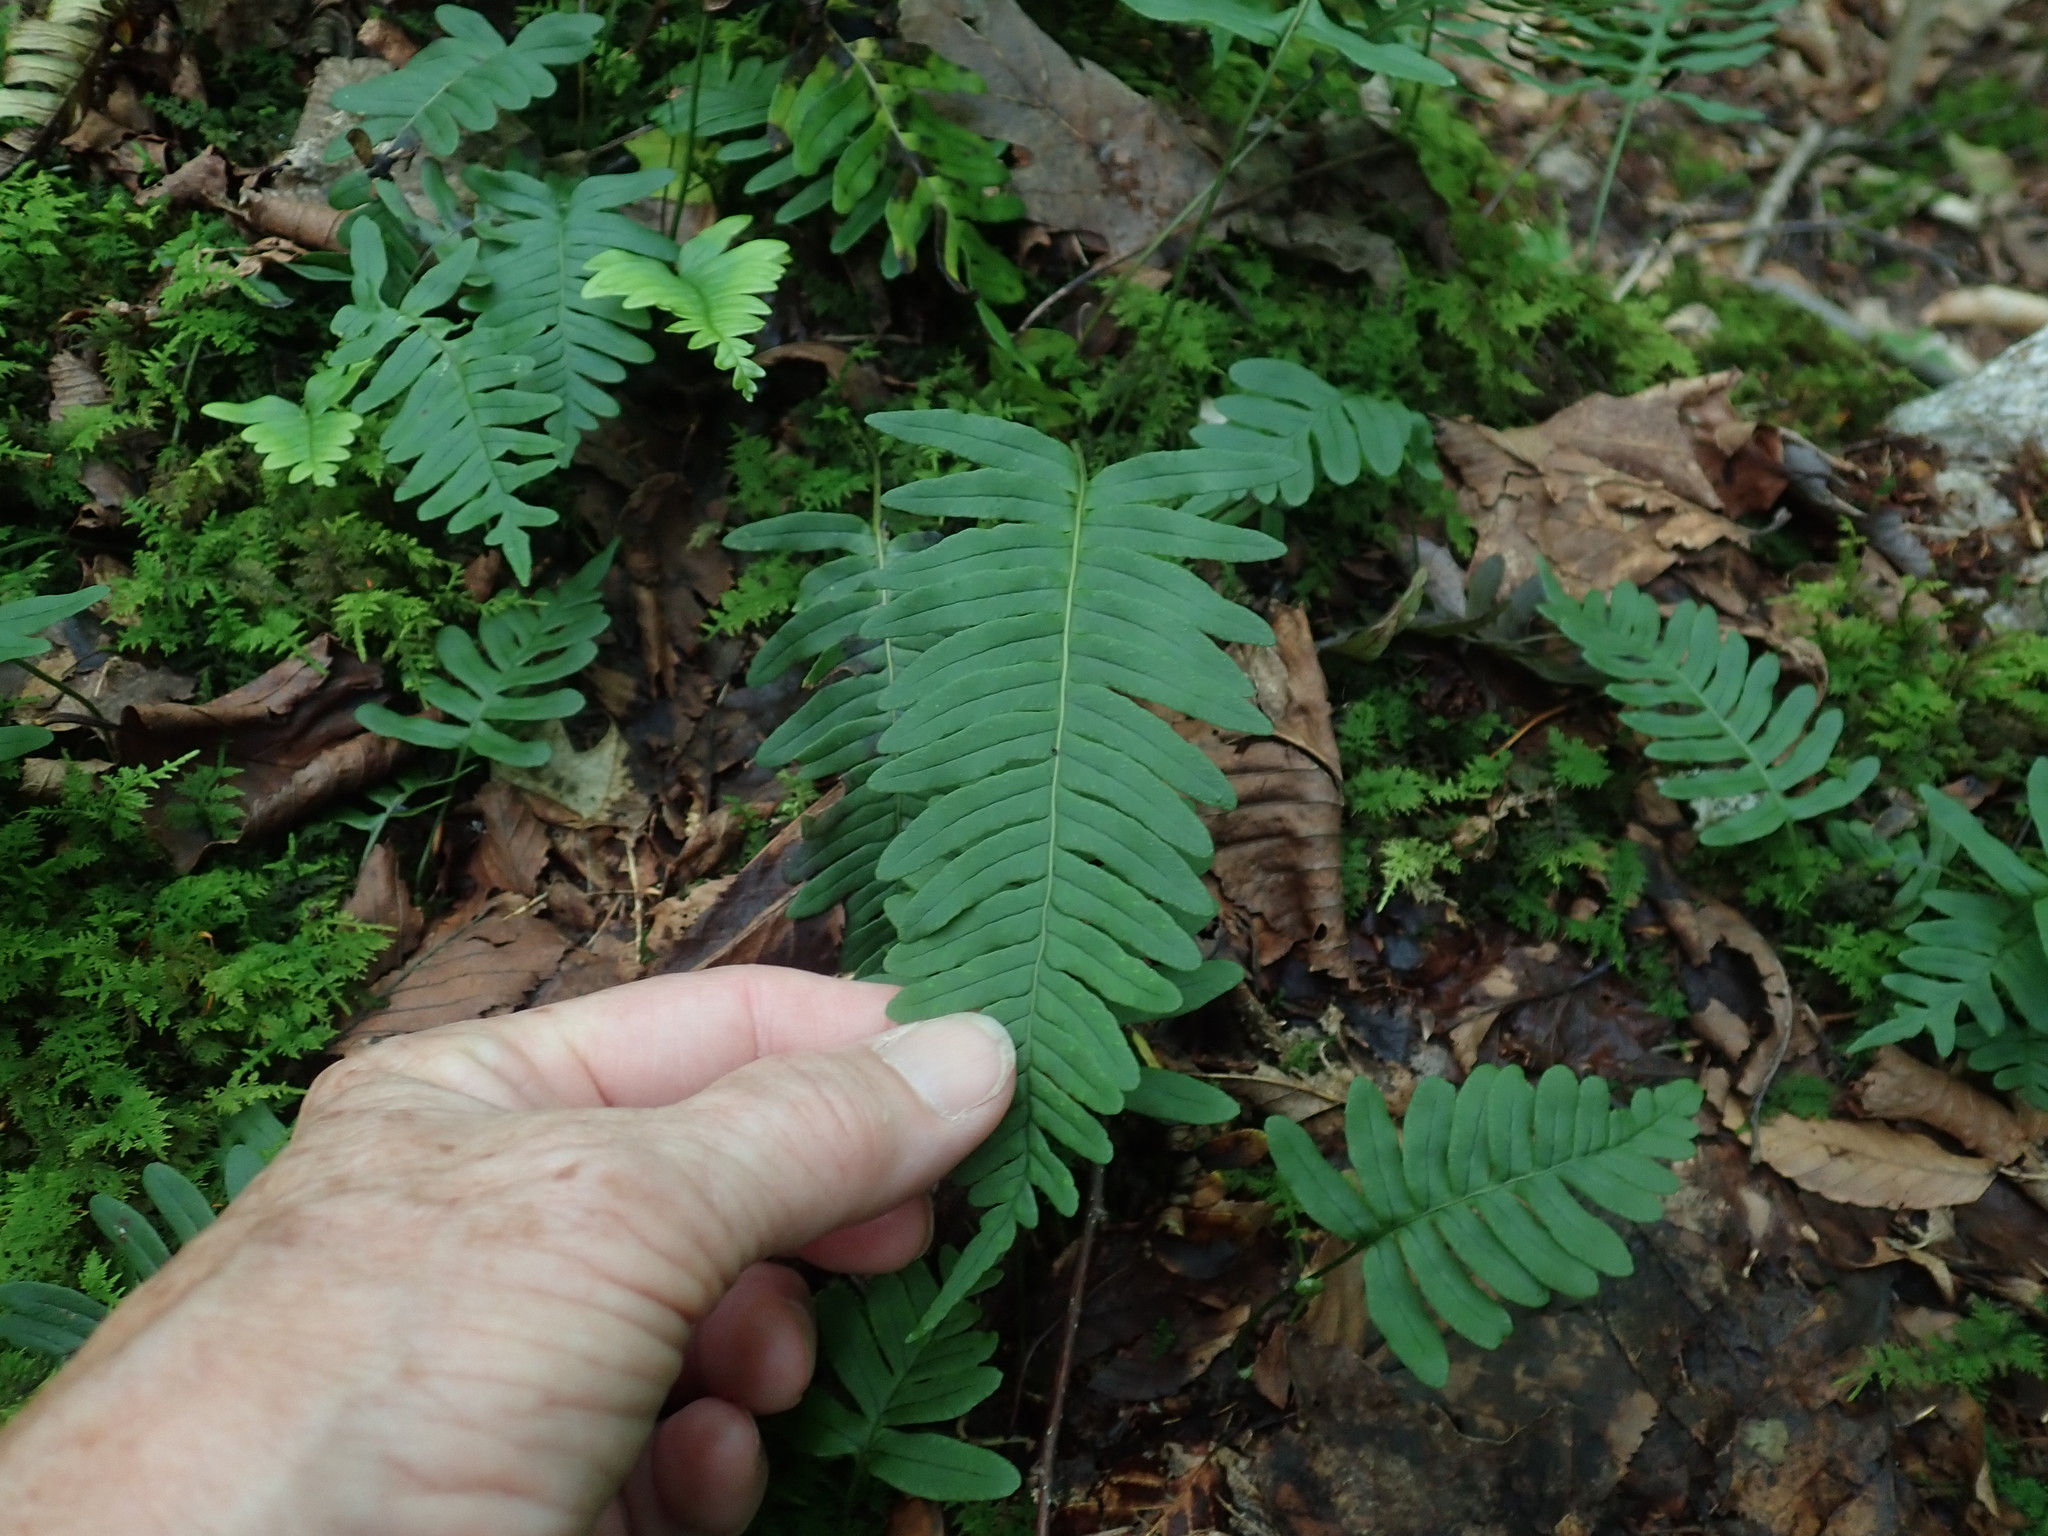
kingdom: Plantae
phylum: Tracheophyta
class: Polypodiopsida
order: Polypodiales
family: Polypodiaceae
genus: Polypodium
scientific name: Polypodium virginianum
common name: American wall fern
